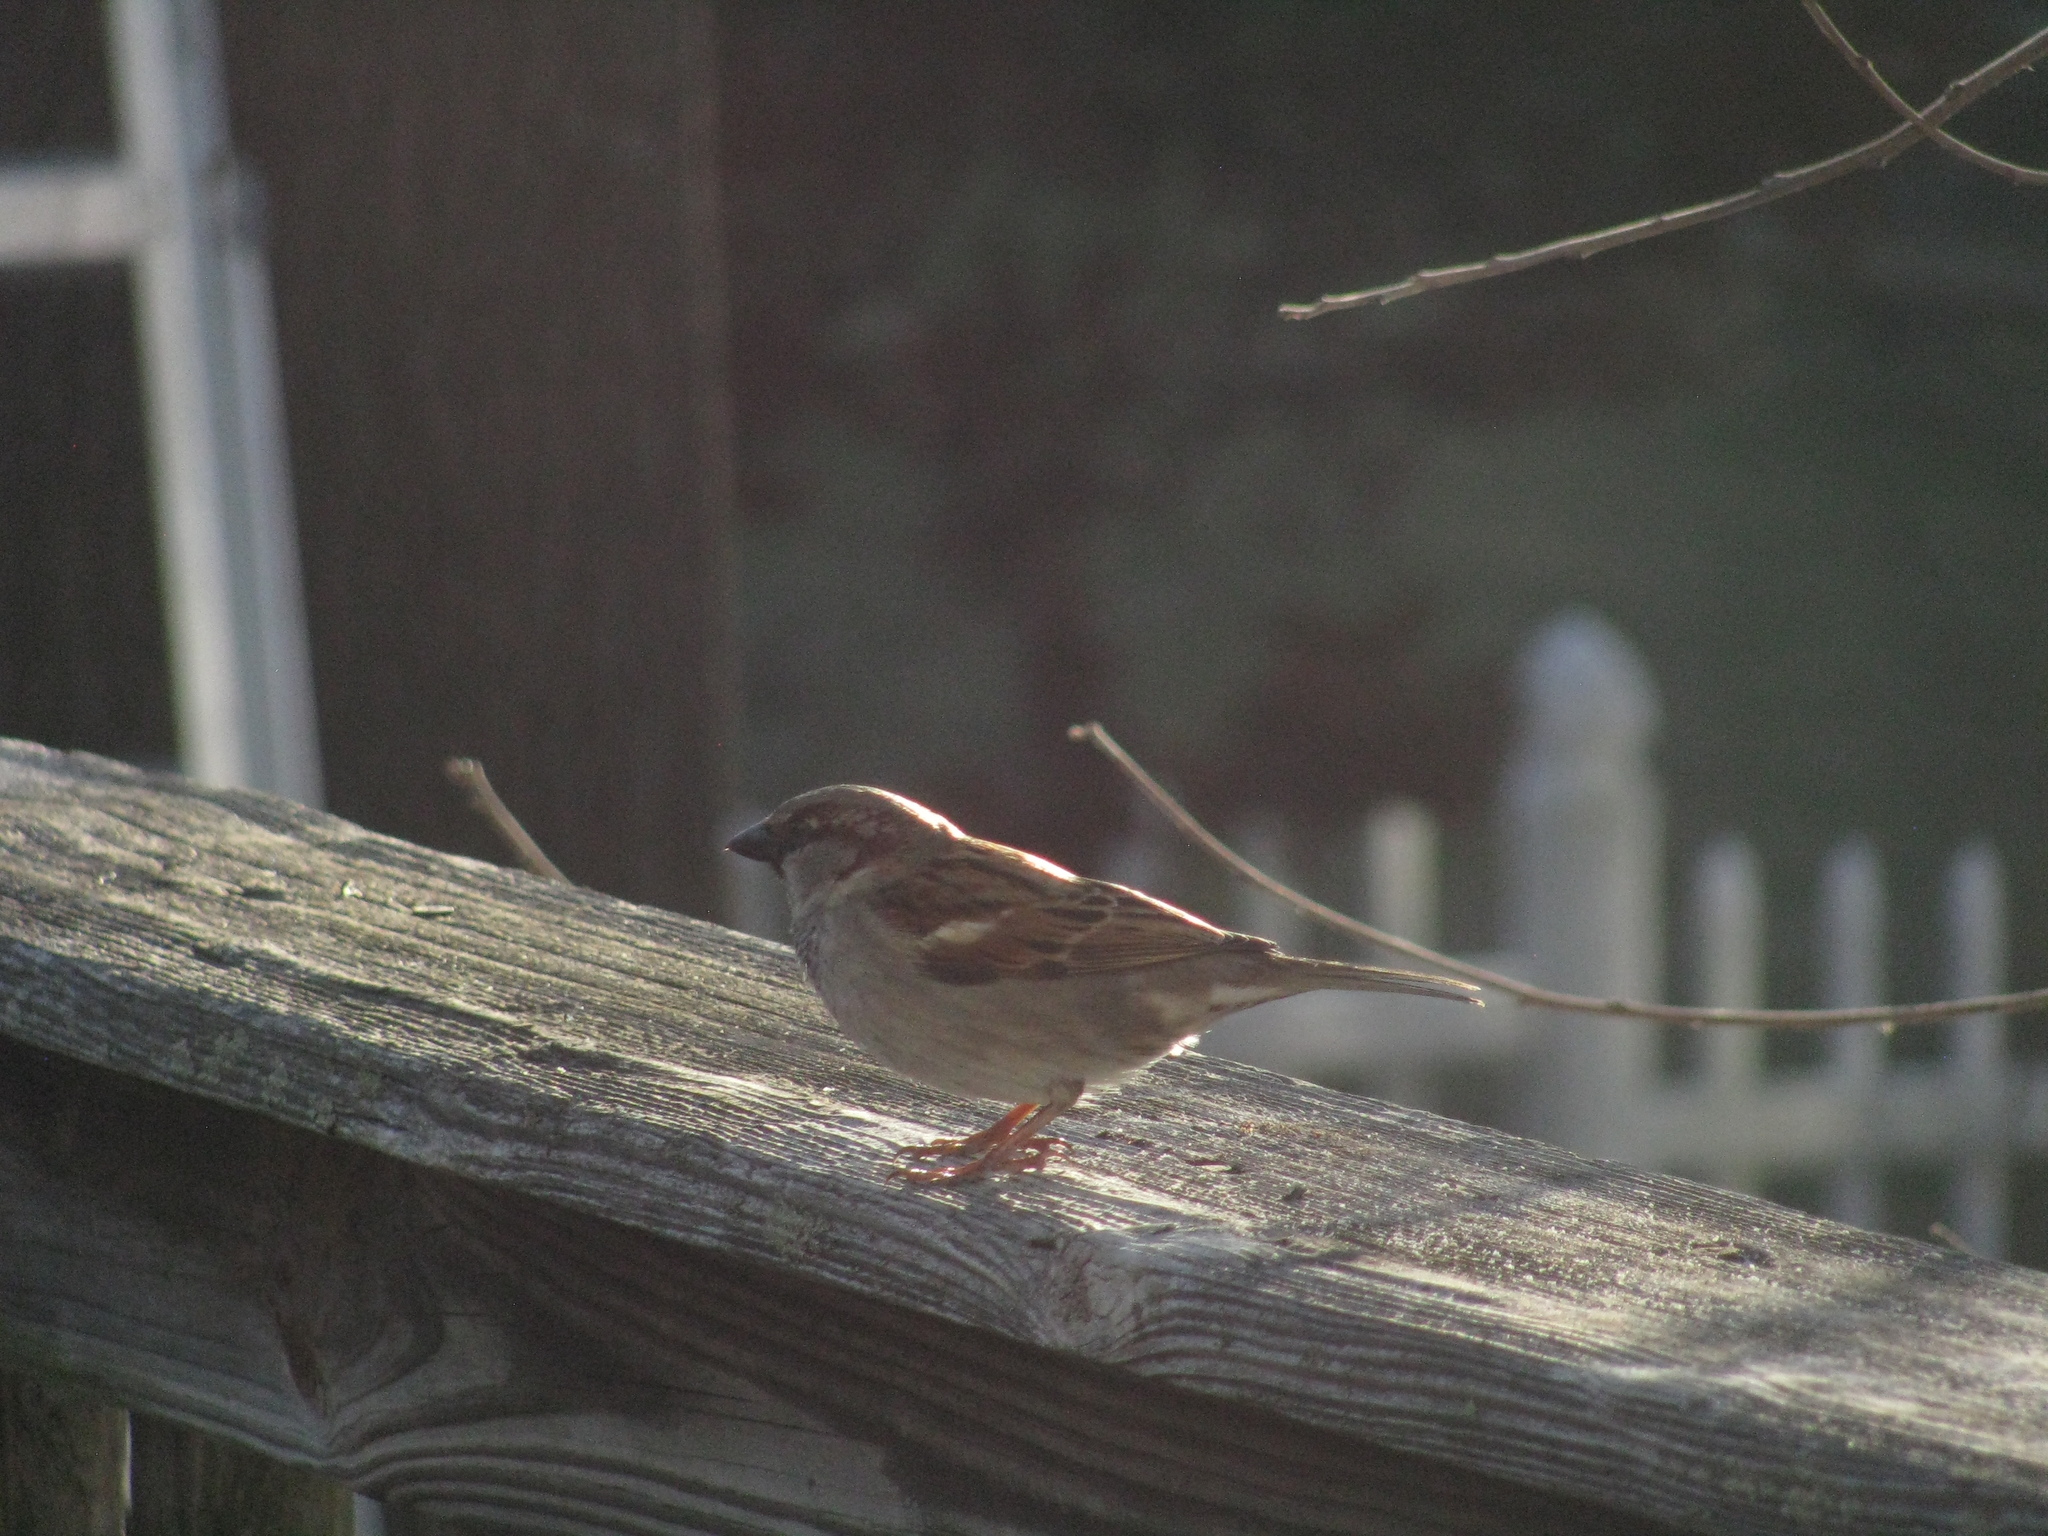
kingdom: Animalia
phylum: Chordata
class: Aves
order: Passeriformes
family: Passeridae
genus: Passer
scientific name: Passer domesticus
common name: House sparrow
